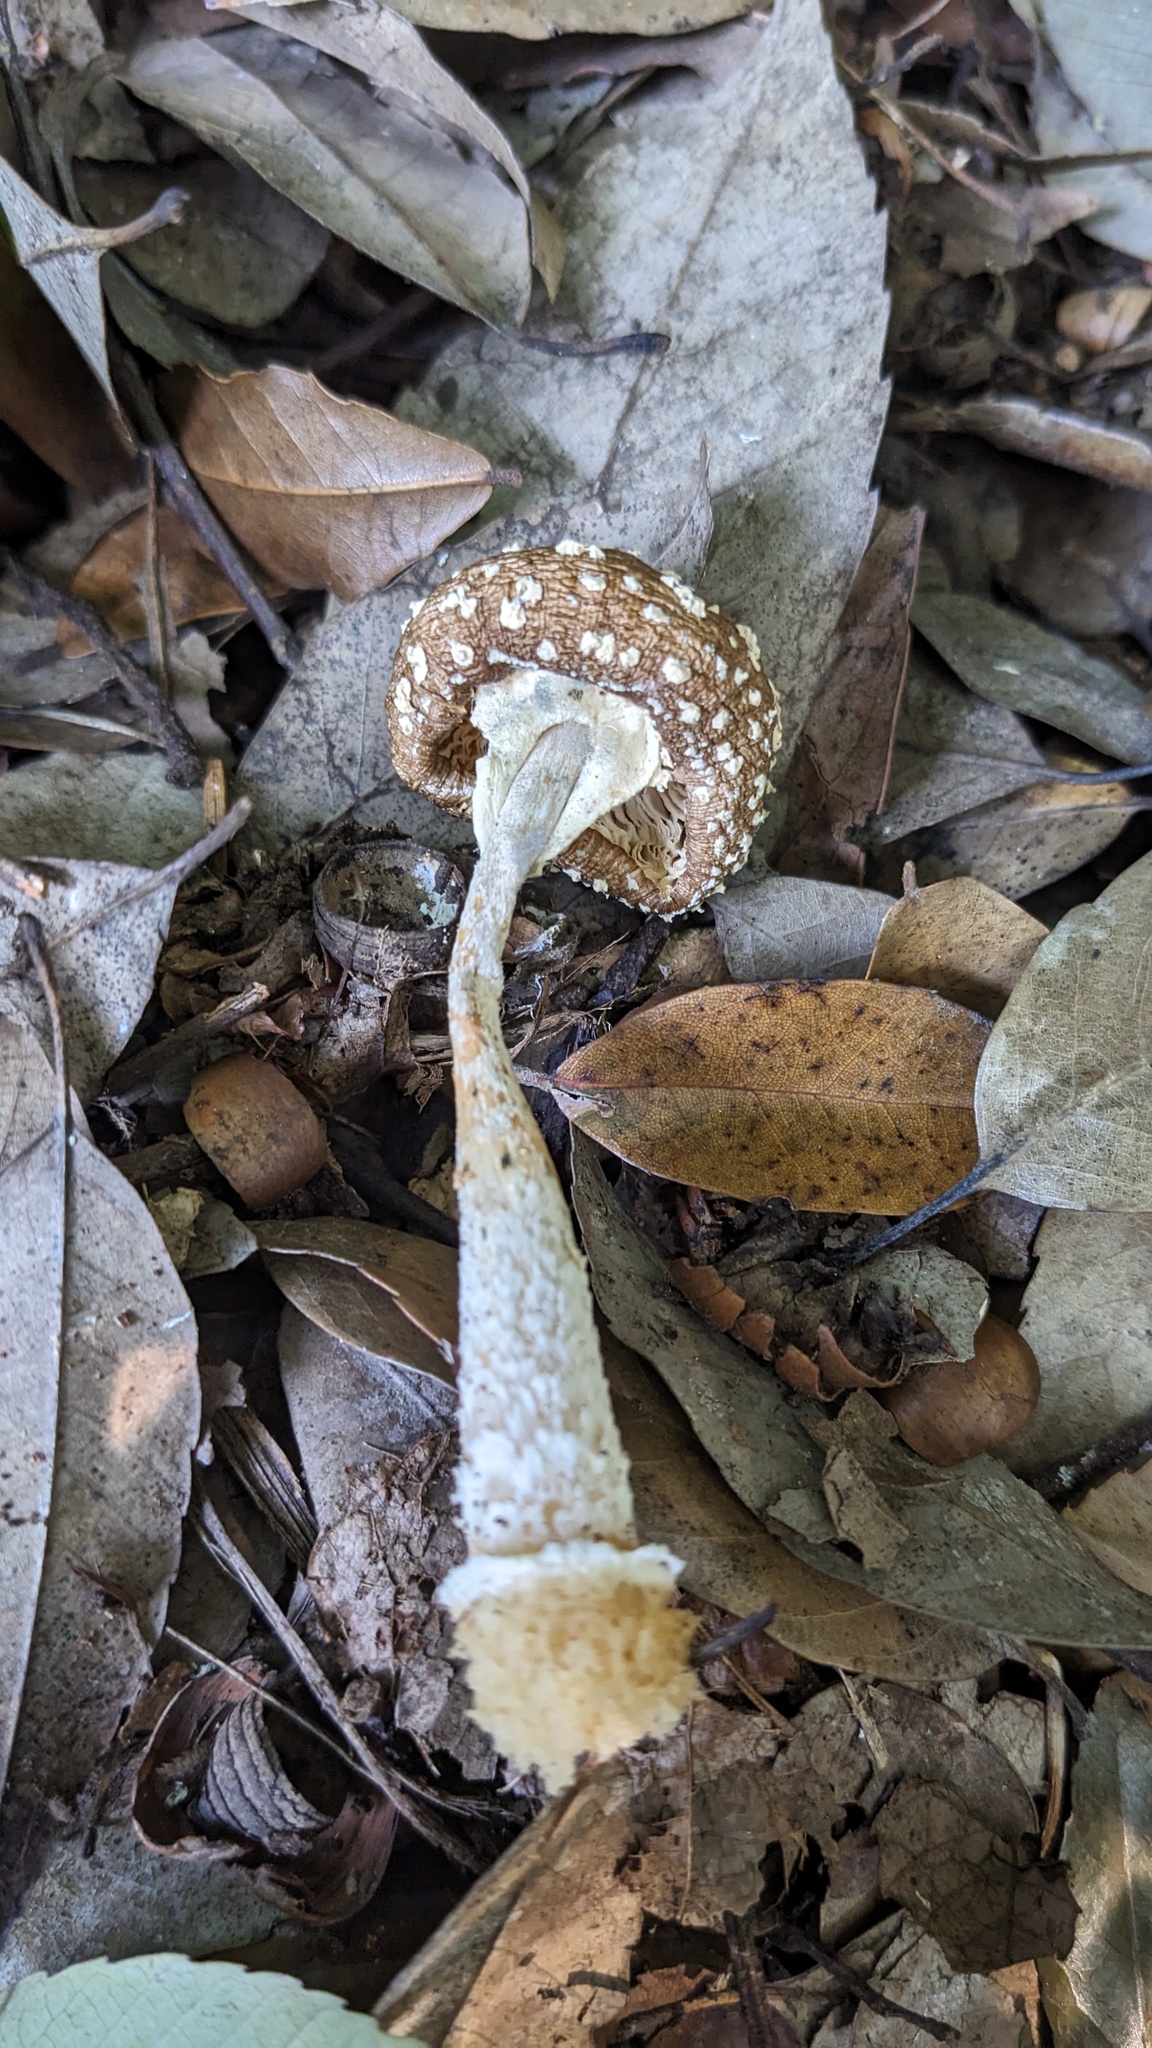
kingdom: Fungi
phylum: Basidiomycota
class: Agaricomycetes
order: Agaricales
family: Amanitaceae
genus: Amanita
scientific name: Amanita sychnopyramis
